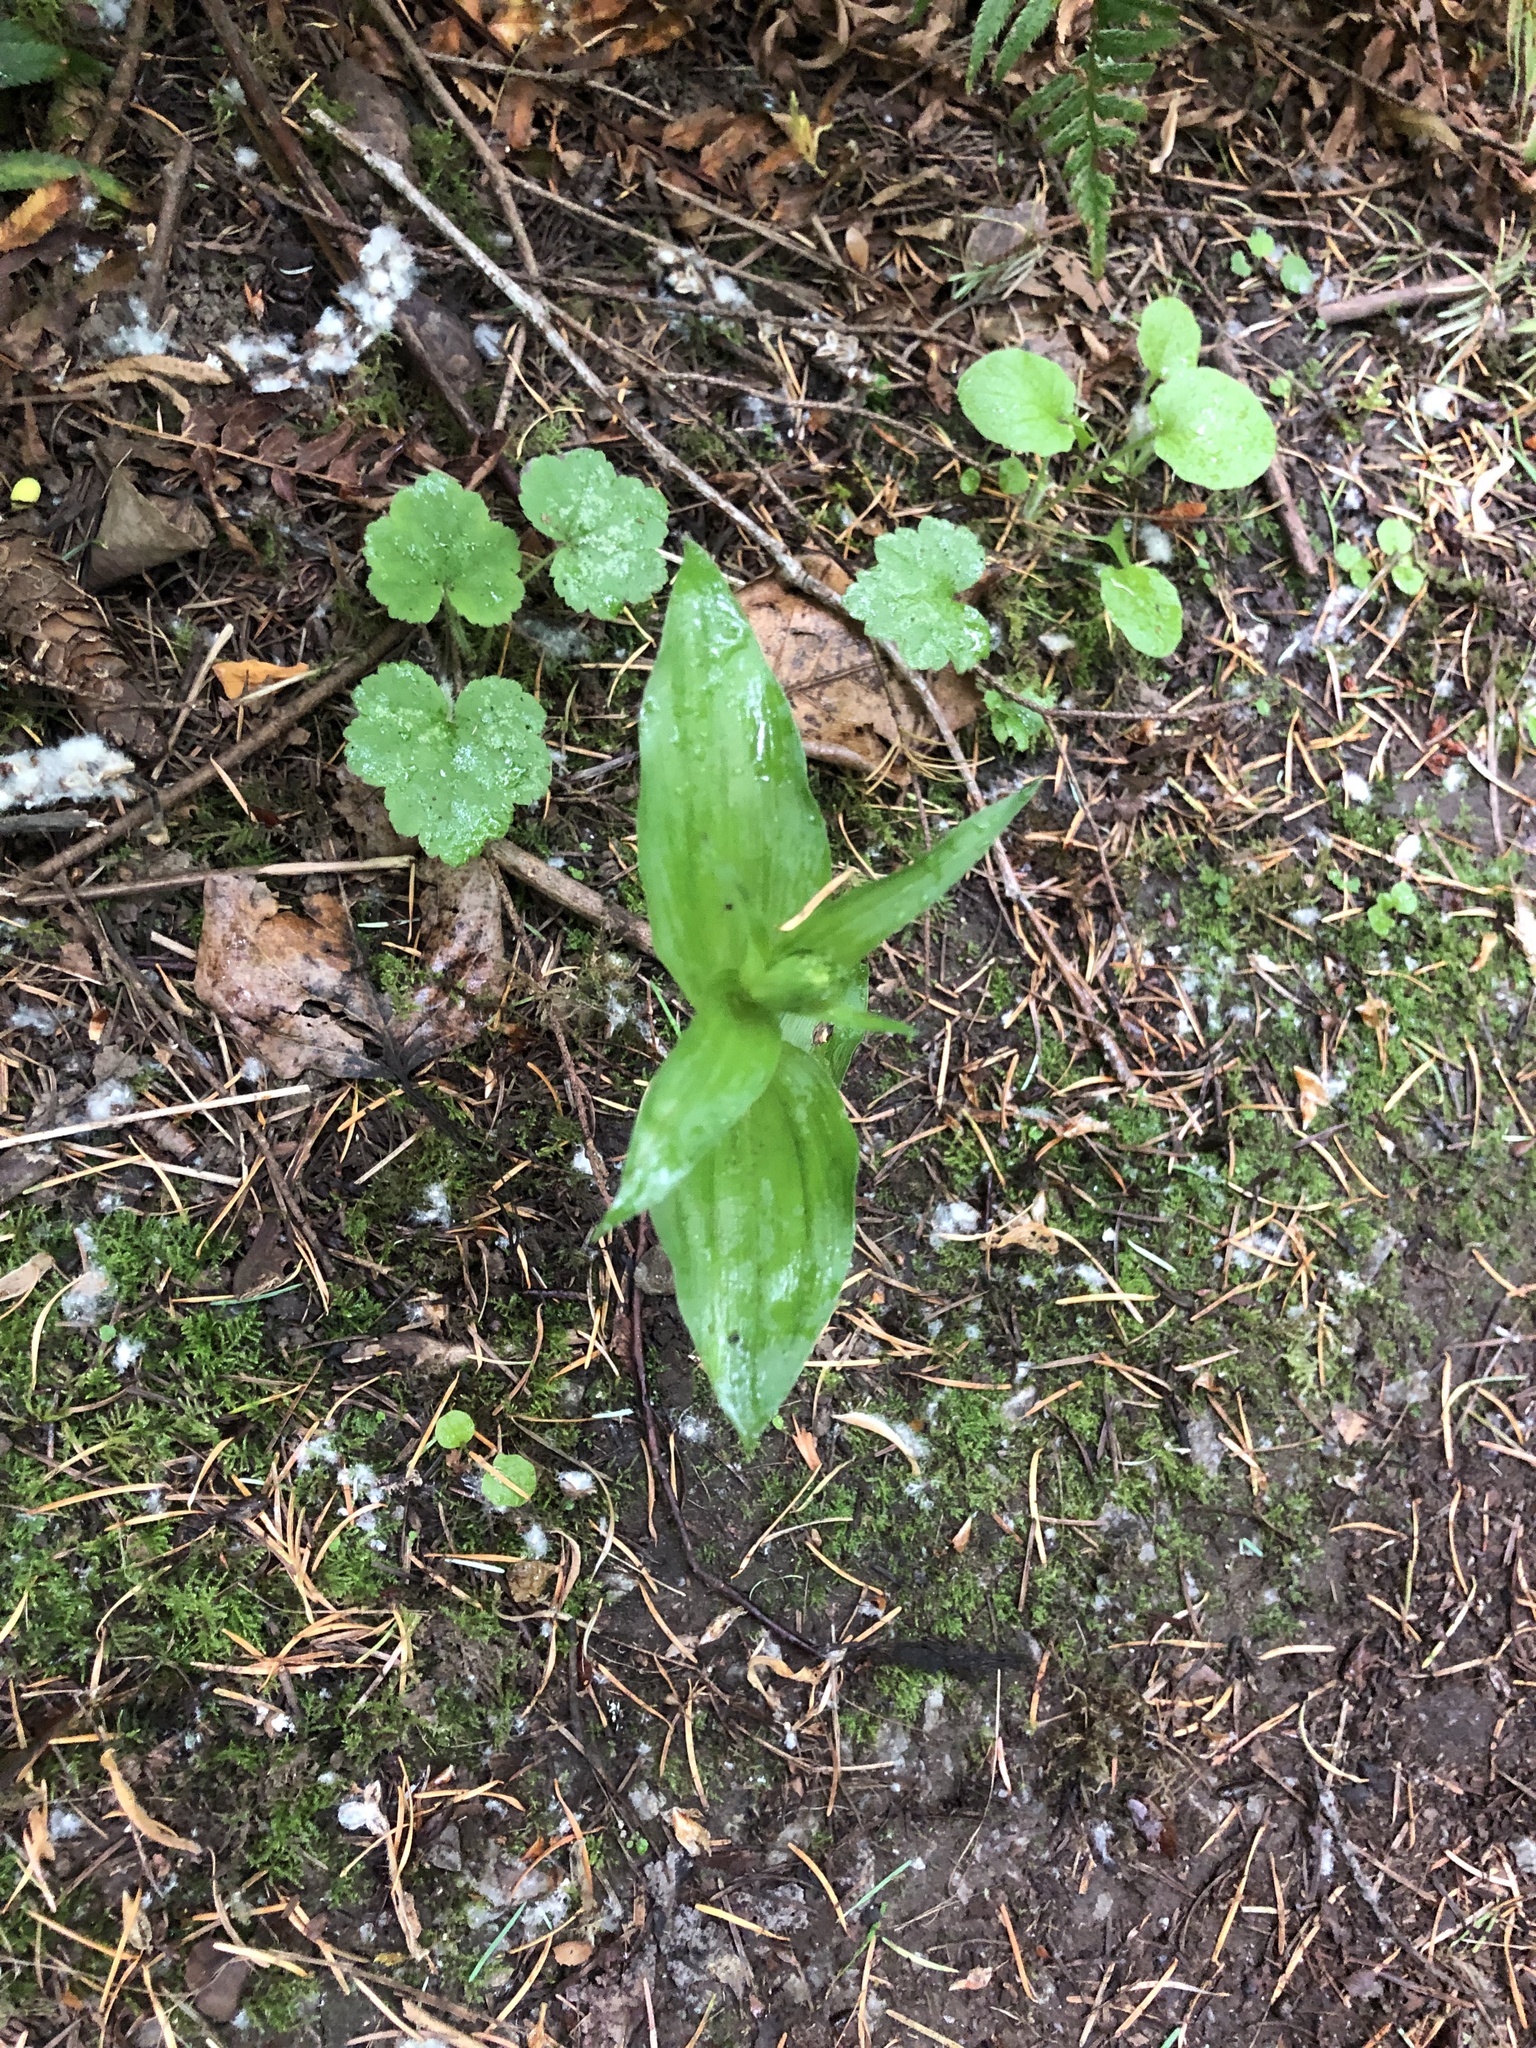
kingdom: Plantae
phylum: Tracheophyta
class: Liliopsida
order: Asparagales
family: Orchidaceae
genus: Epipactis
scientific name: Epipactis helleborine
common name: Broad-leaved helleborine
